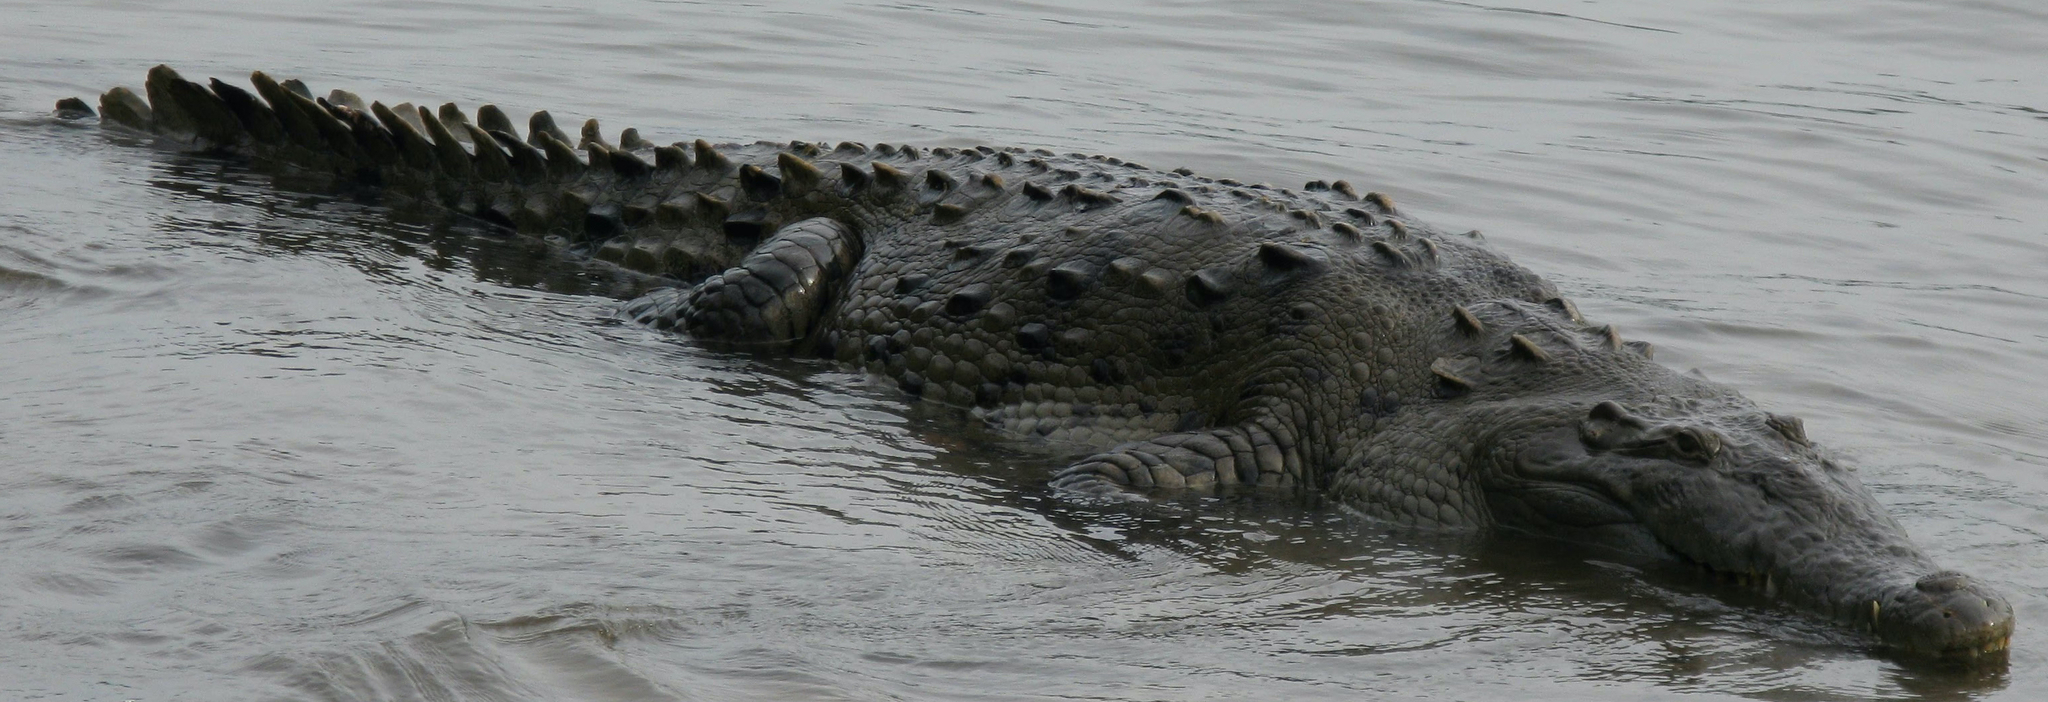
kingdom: Animalia
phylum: Chordata
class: Crocodylia
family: Crocodylidae
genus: Crocodylus
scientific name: Crocodylus acutus
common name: American crocodile
